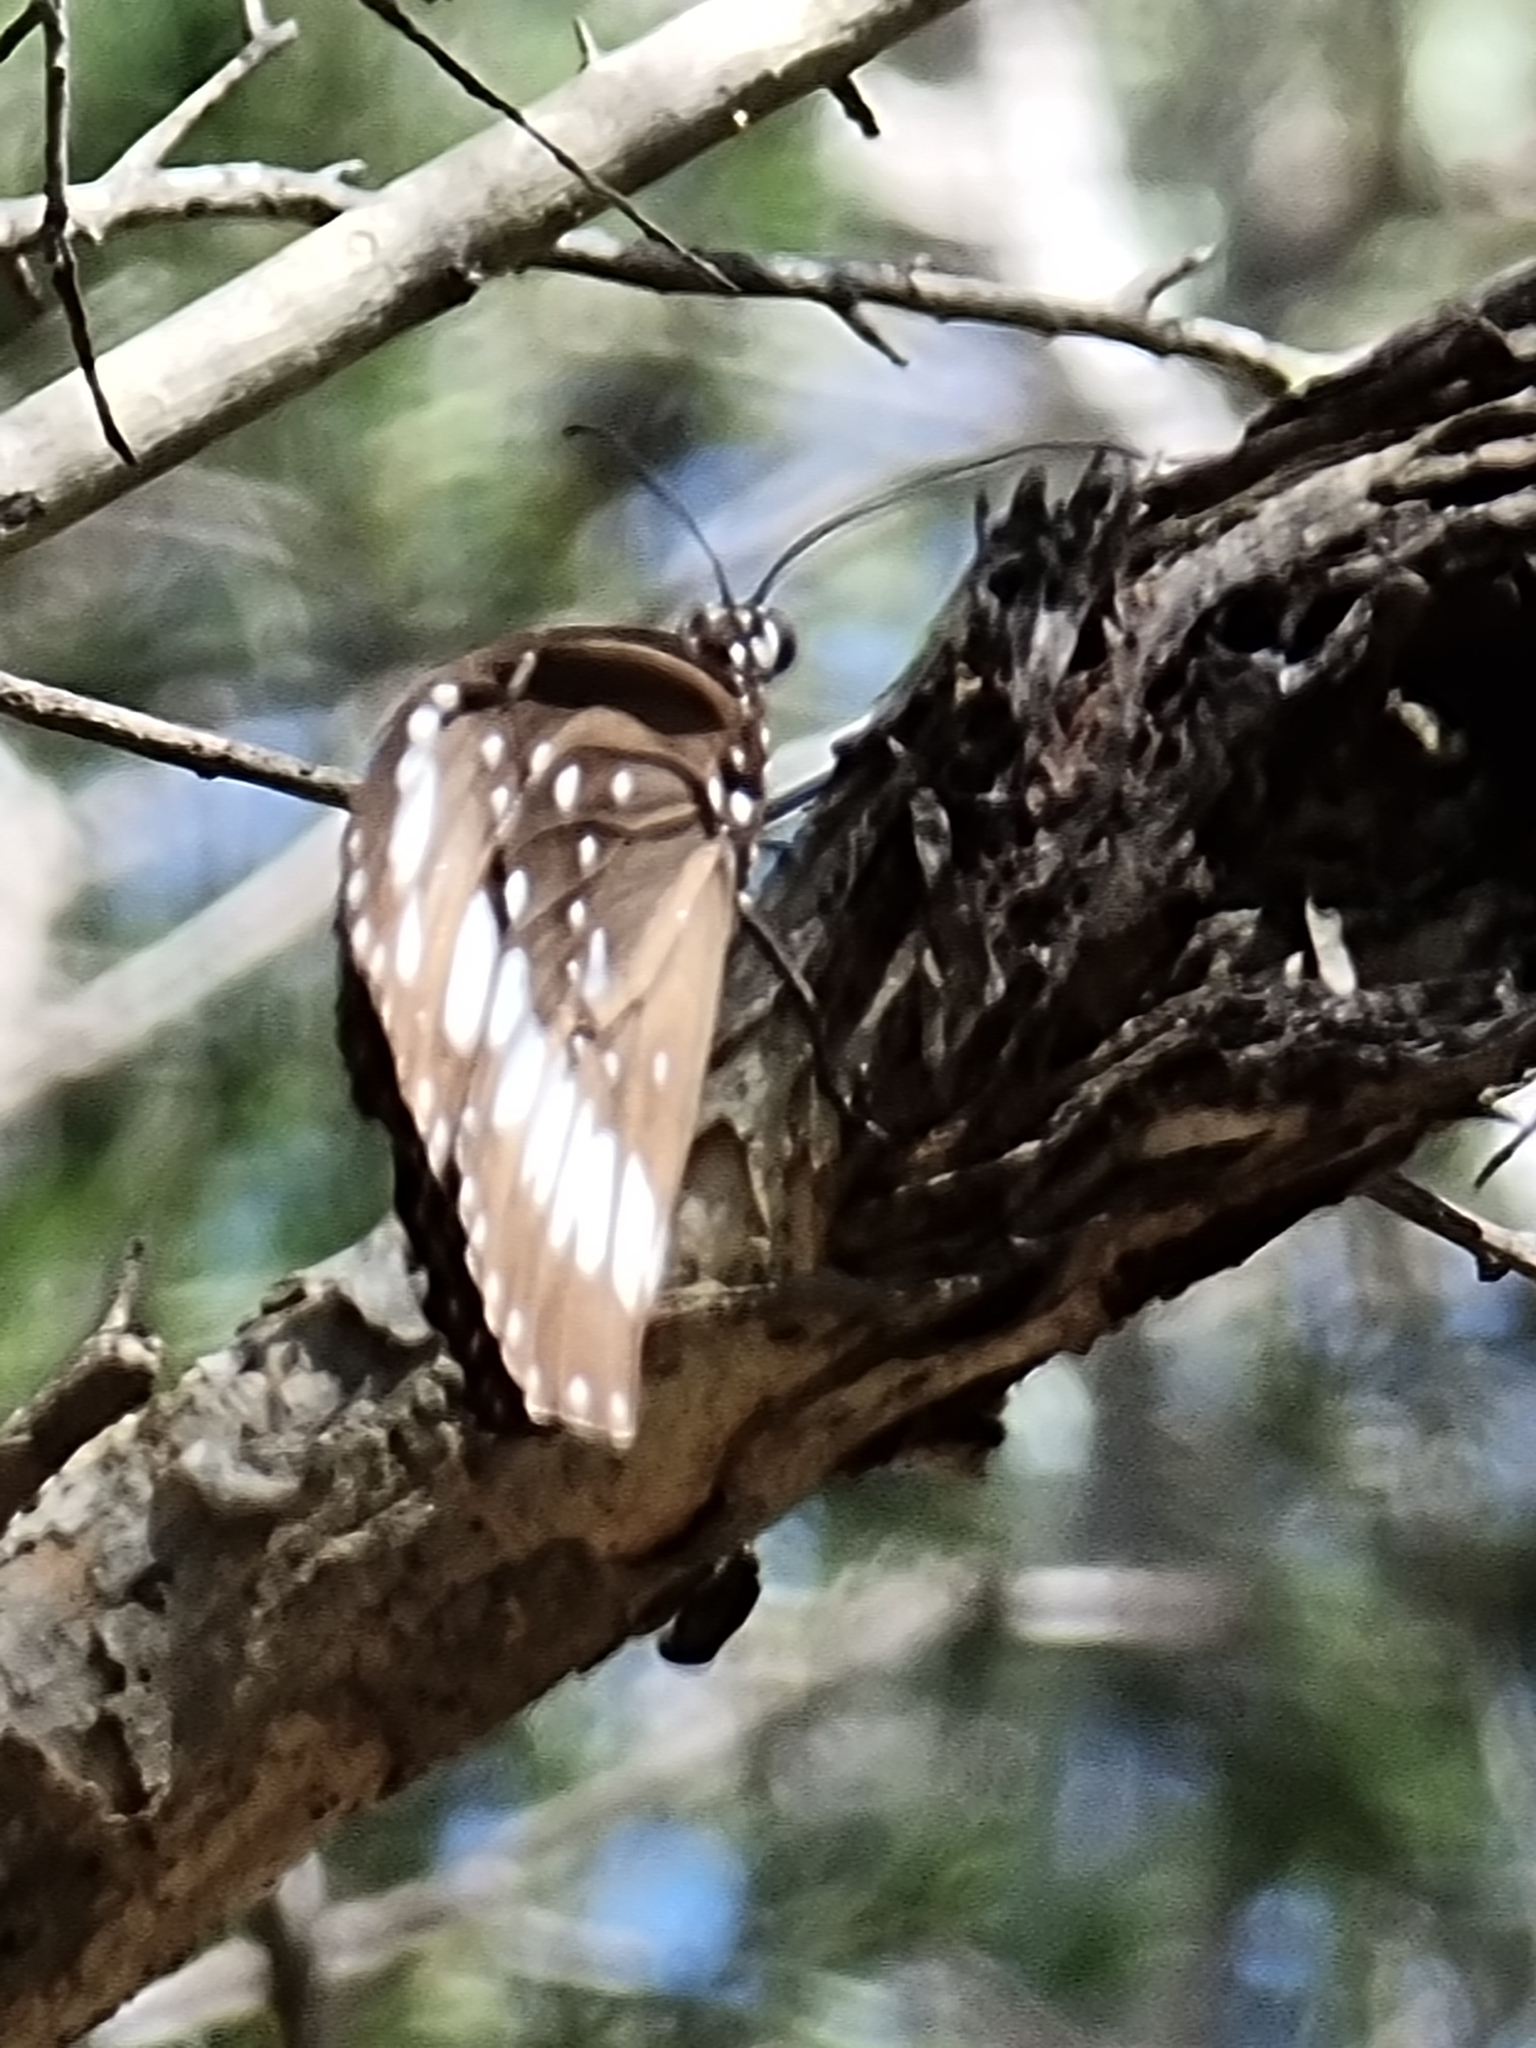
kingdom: Animalia
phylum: Arthropoda
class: Insecta
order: Lepidoptera
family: Nymphalidae
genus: Euploea
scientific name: Euploea core
